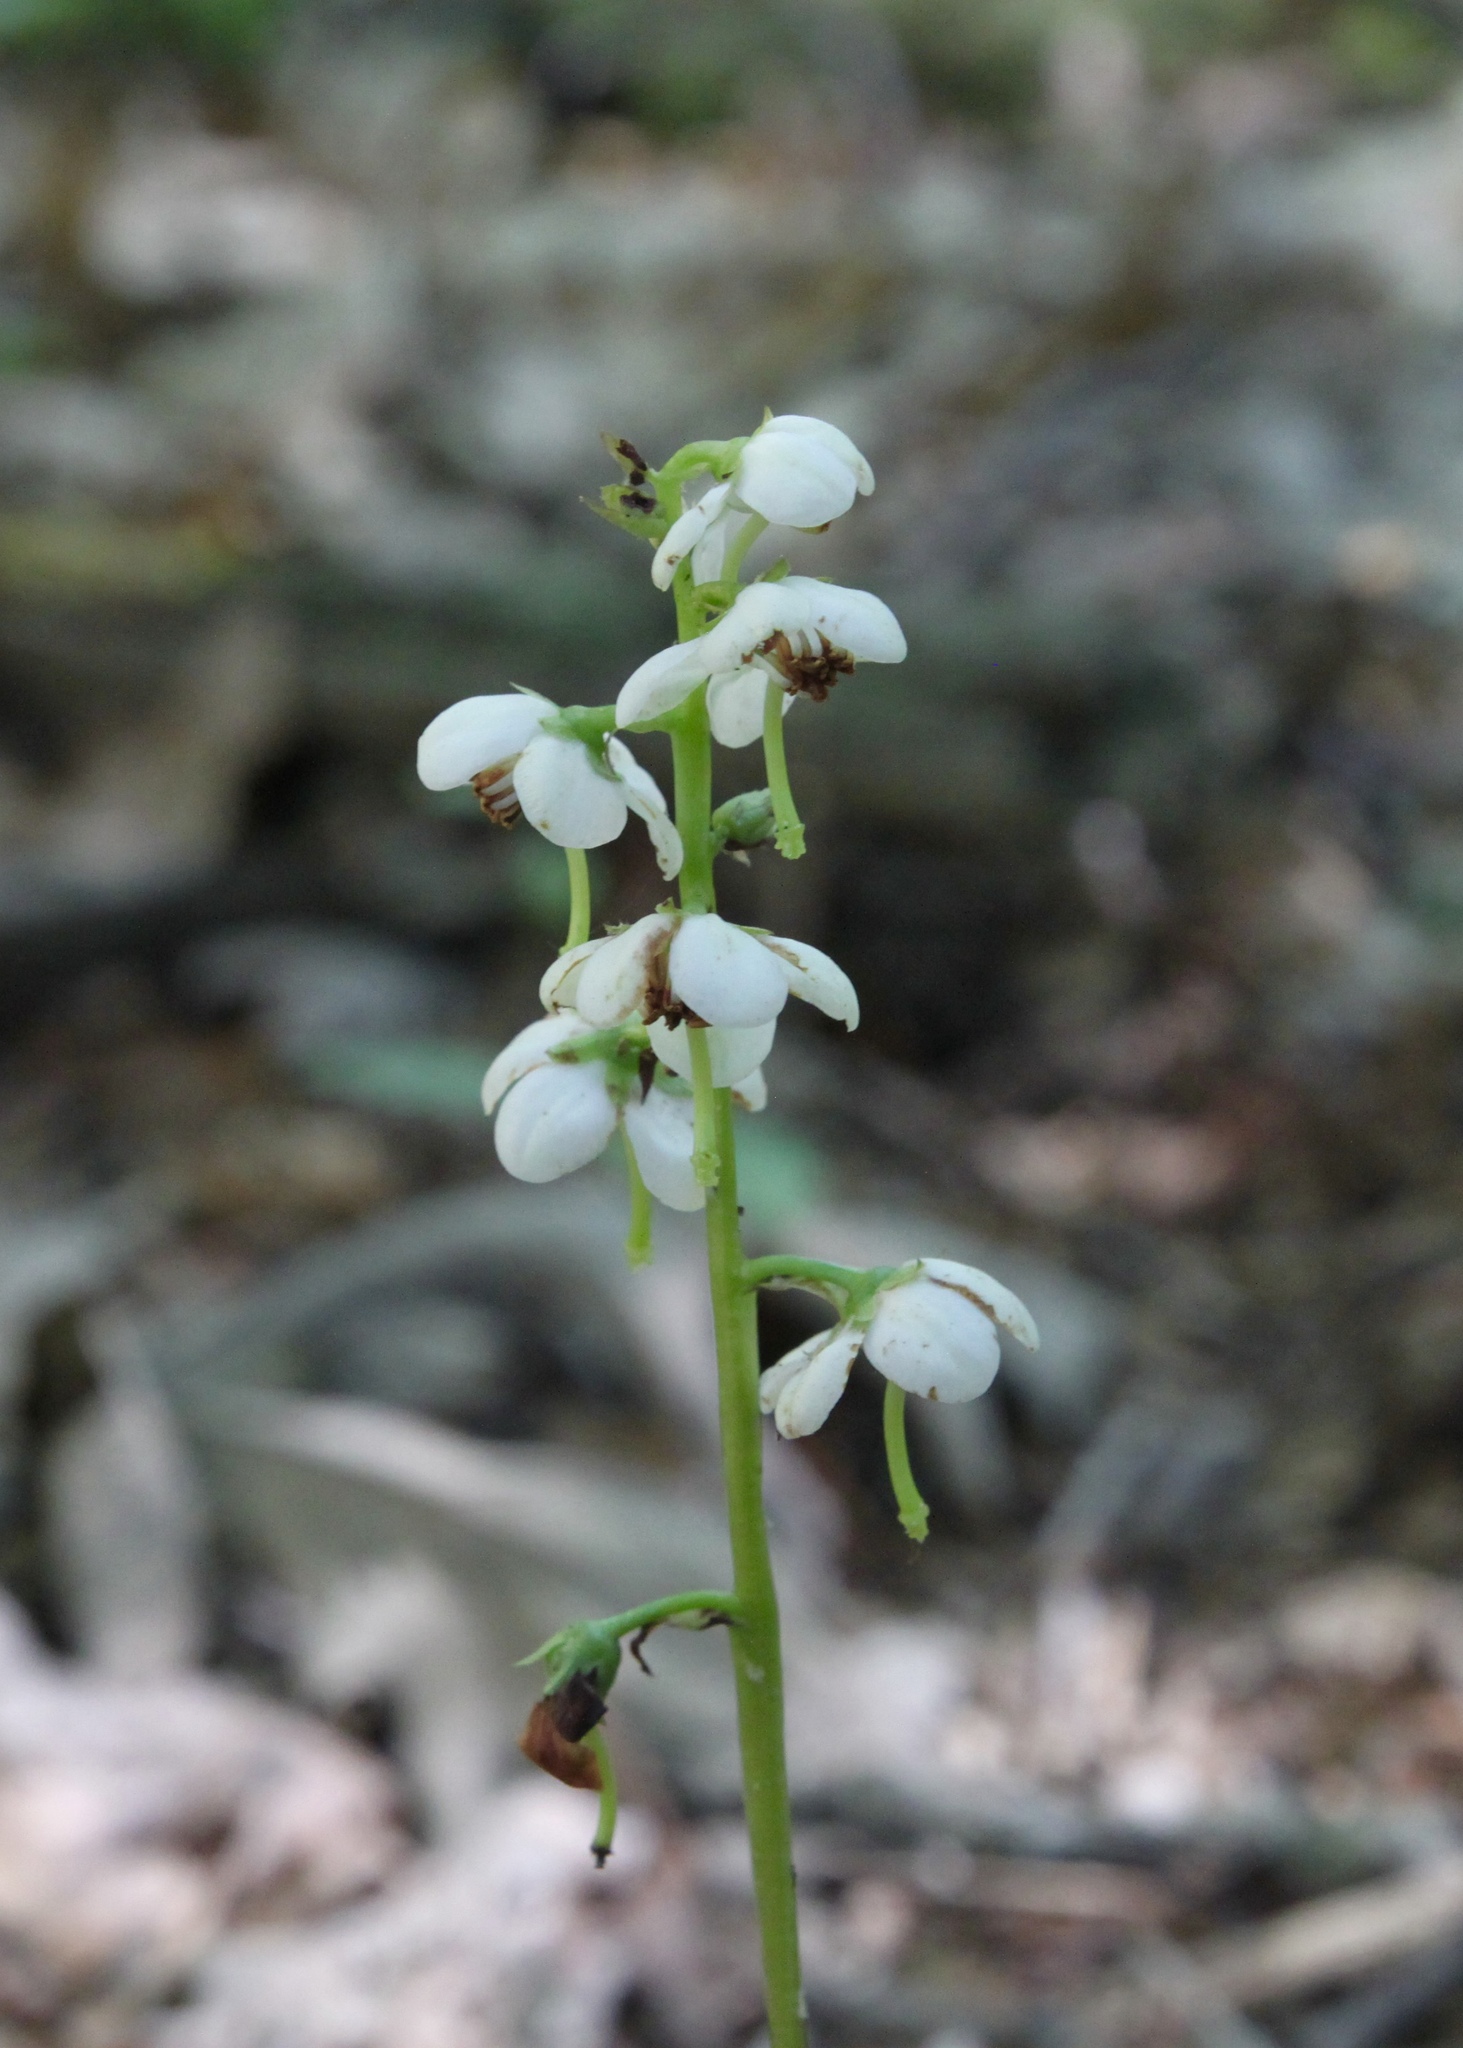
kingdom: Plantae
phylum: Tracheophyta
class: Magnoliopsida
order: Ericales
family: Ericaceae
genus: Pyrola
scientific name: Pyrola elliptica
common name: Shinleaf
